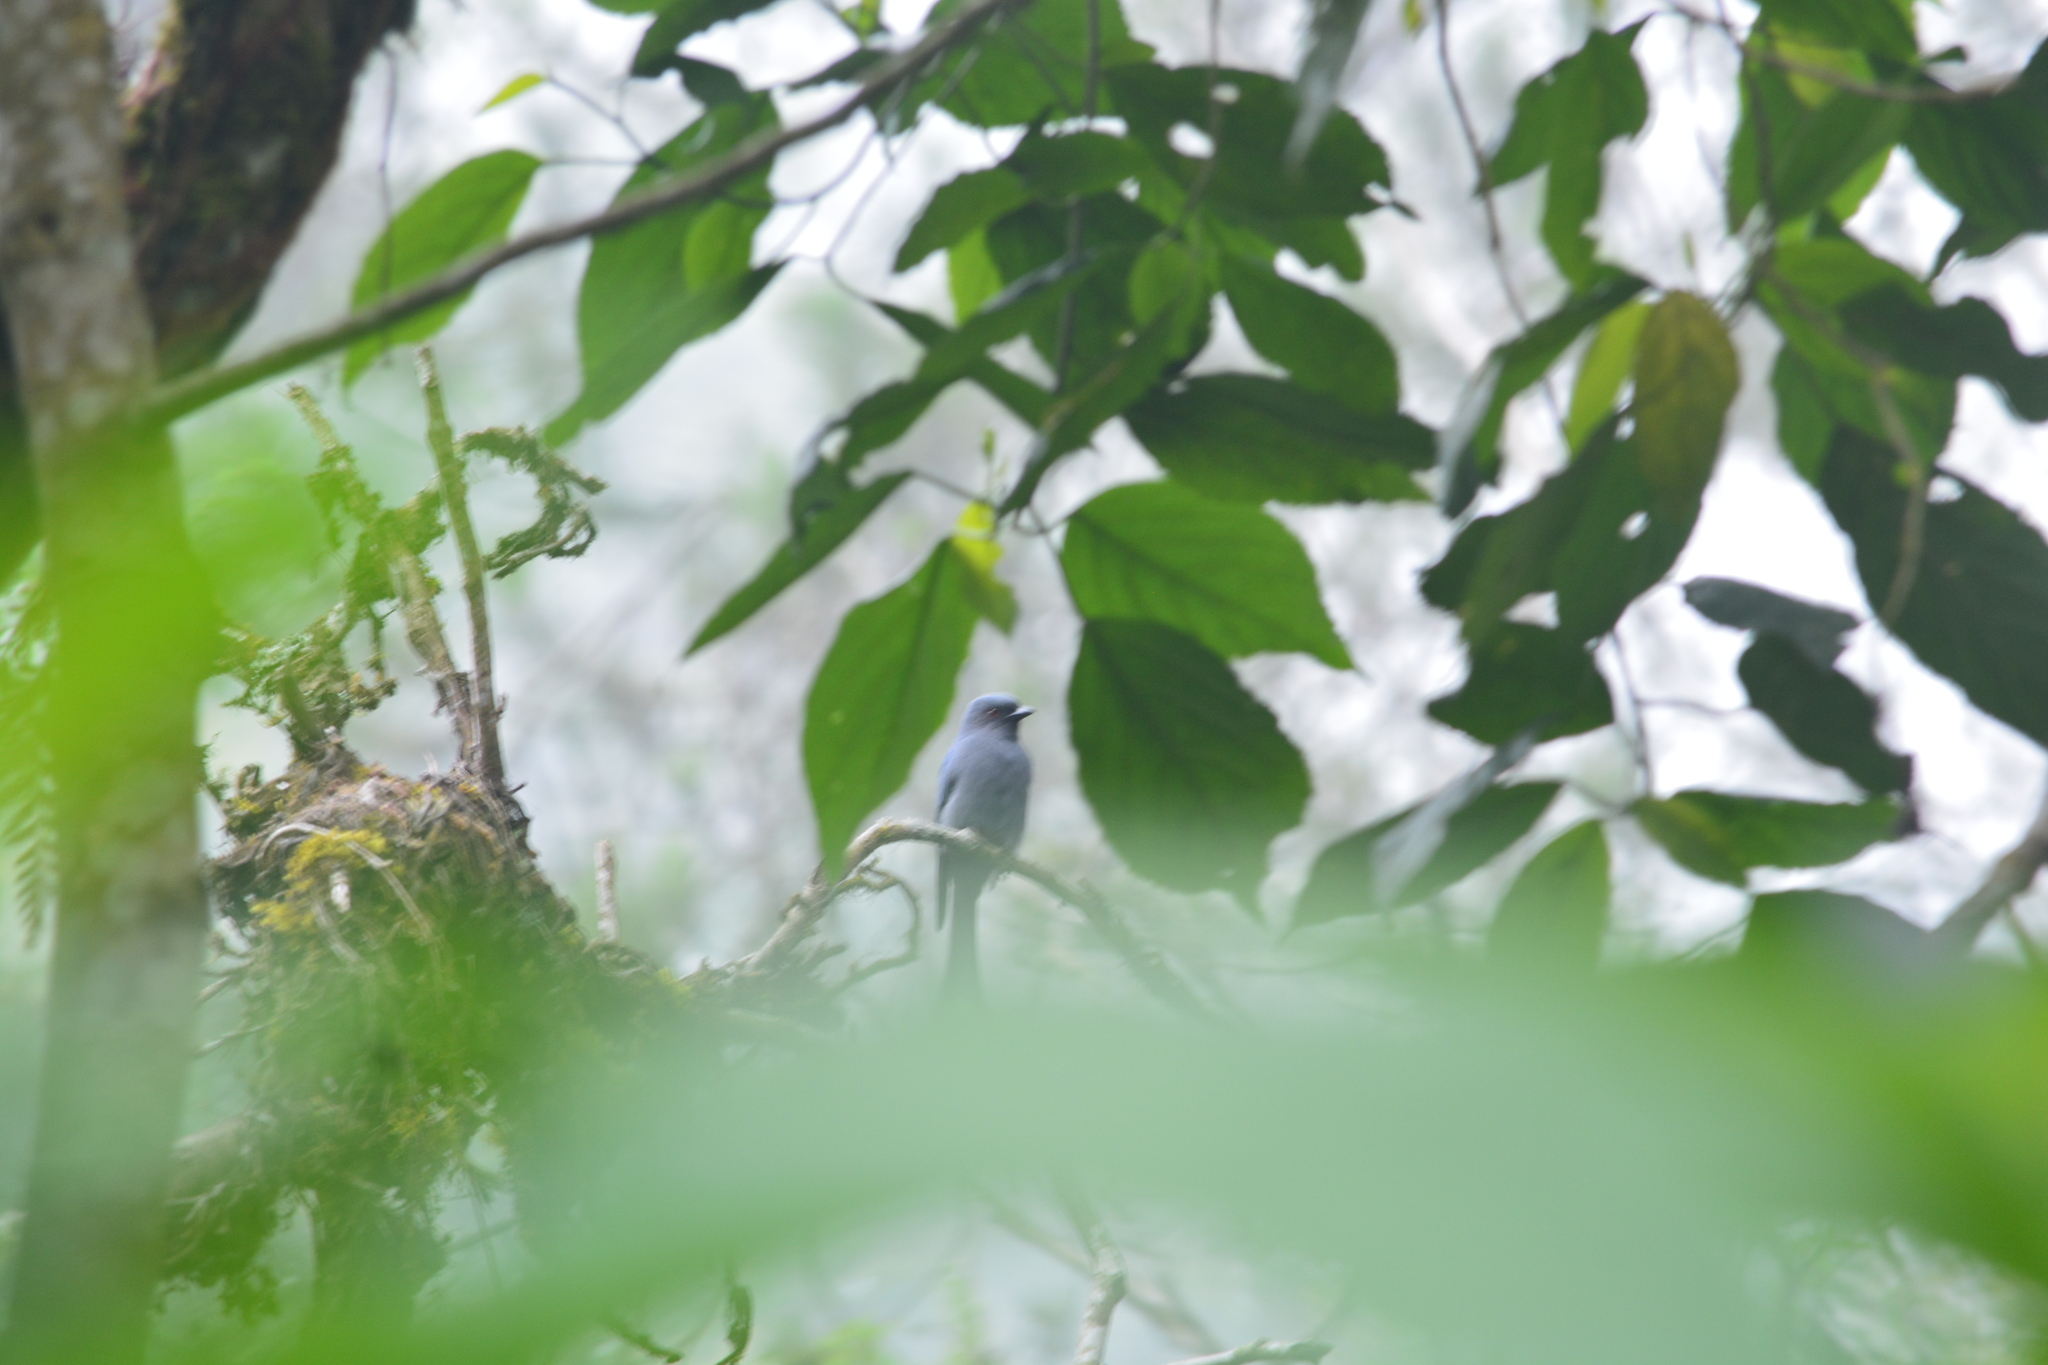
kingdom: Animalia
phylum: Chordata
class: Aves
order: Passeriformes
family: Dicruridae
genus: Dicrurus
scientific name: Dicrurus leucophaeus
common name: Ashy drongo
